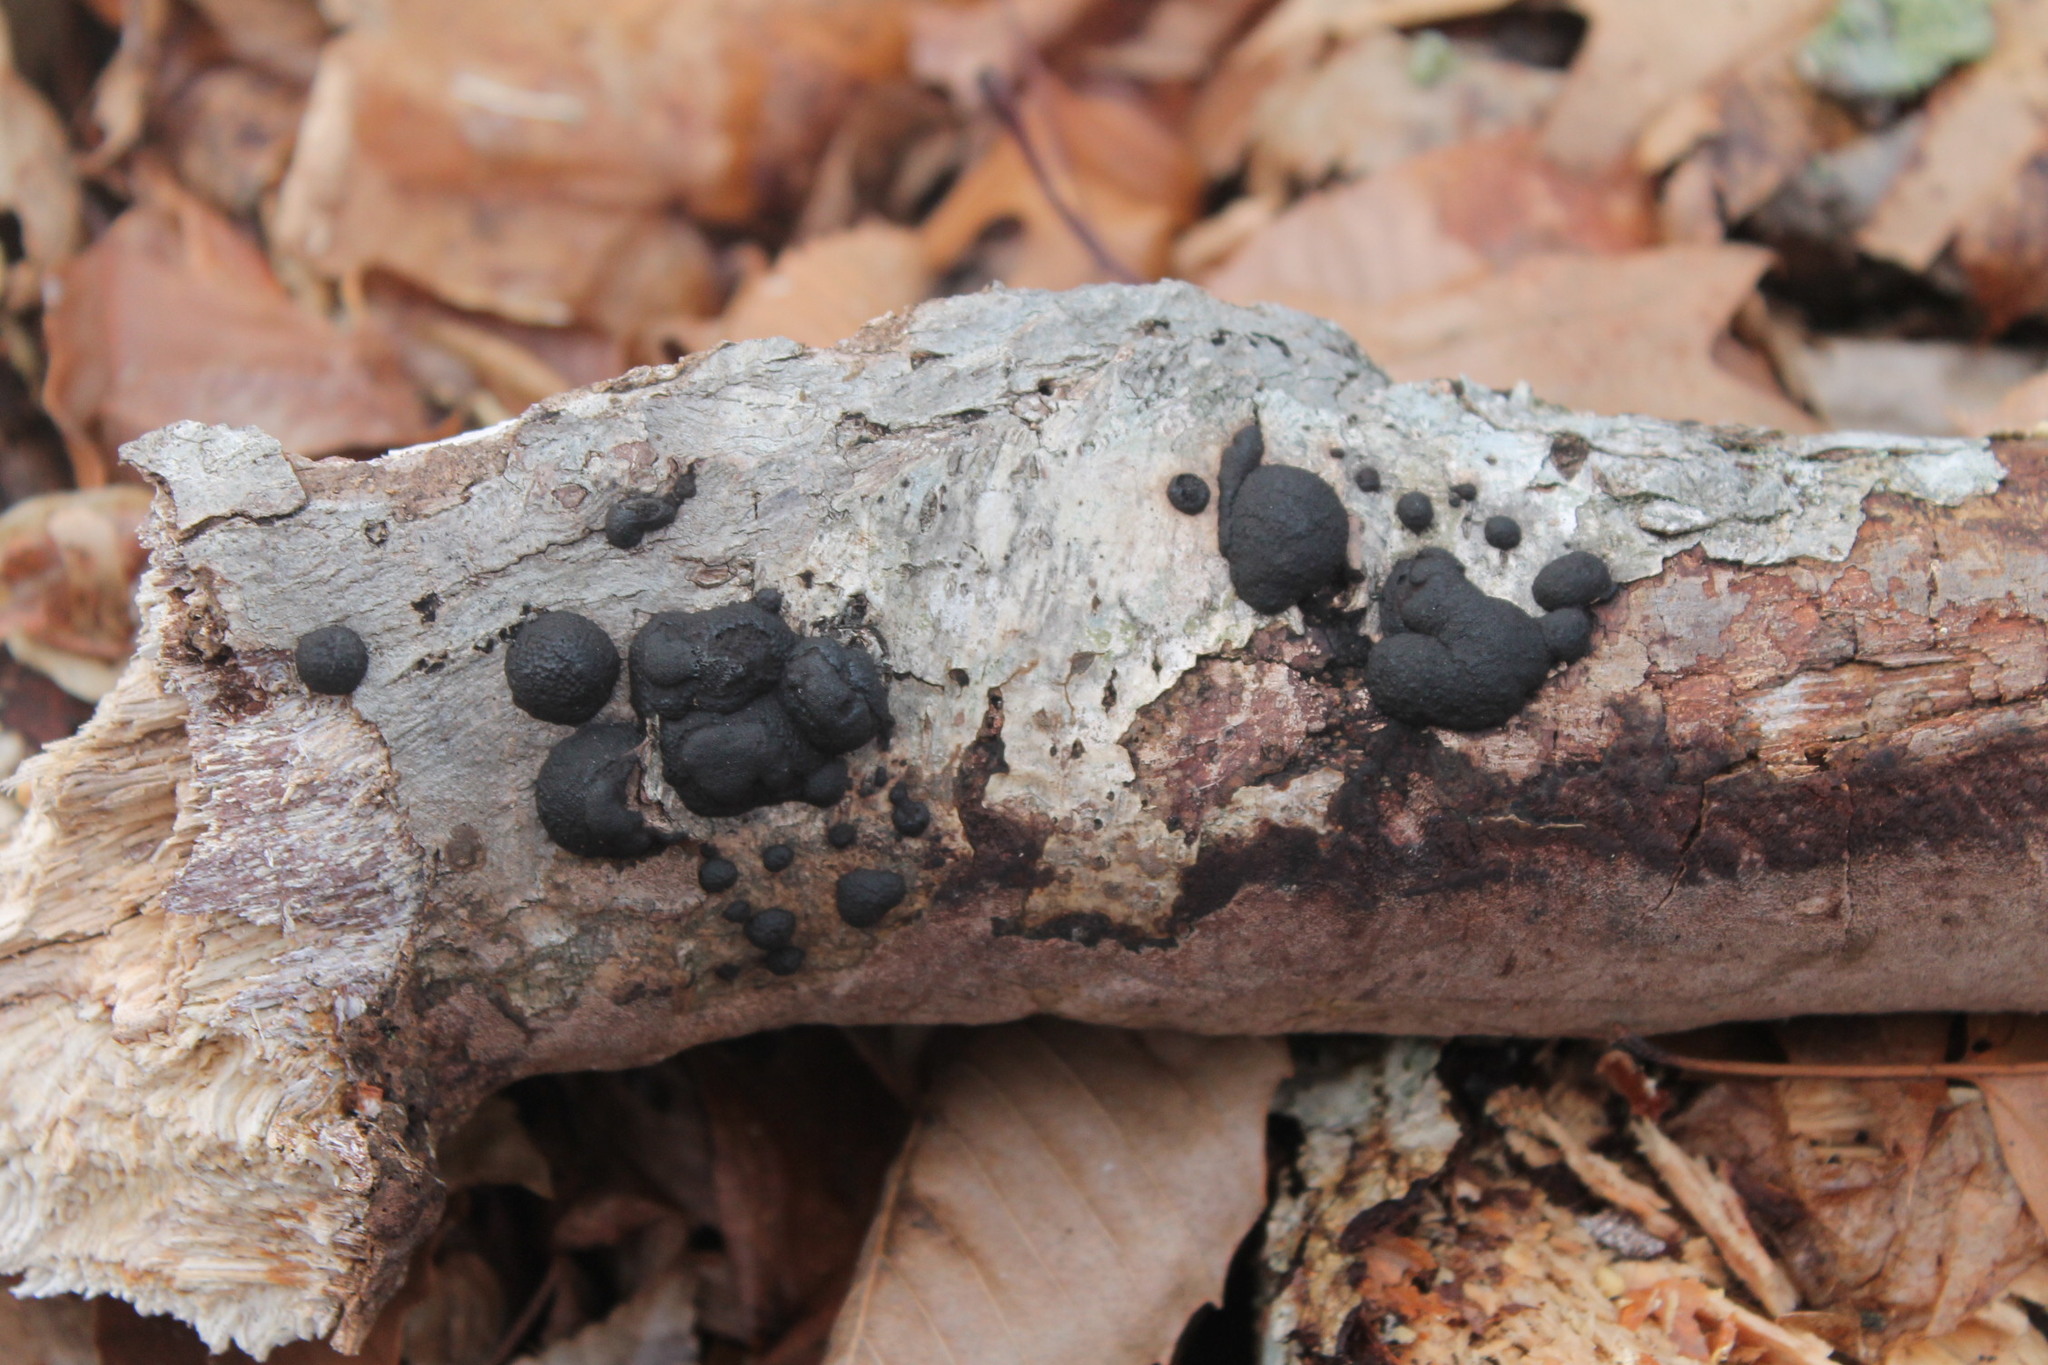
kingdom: Fungi
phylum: Ascomycota
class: Sordariomycetes
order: Xylariales
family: Hypoxylaceae
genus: Jackrogersella
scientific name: Jackrogersella multiformis
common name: Birch woodwart
